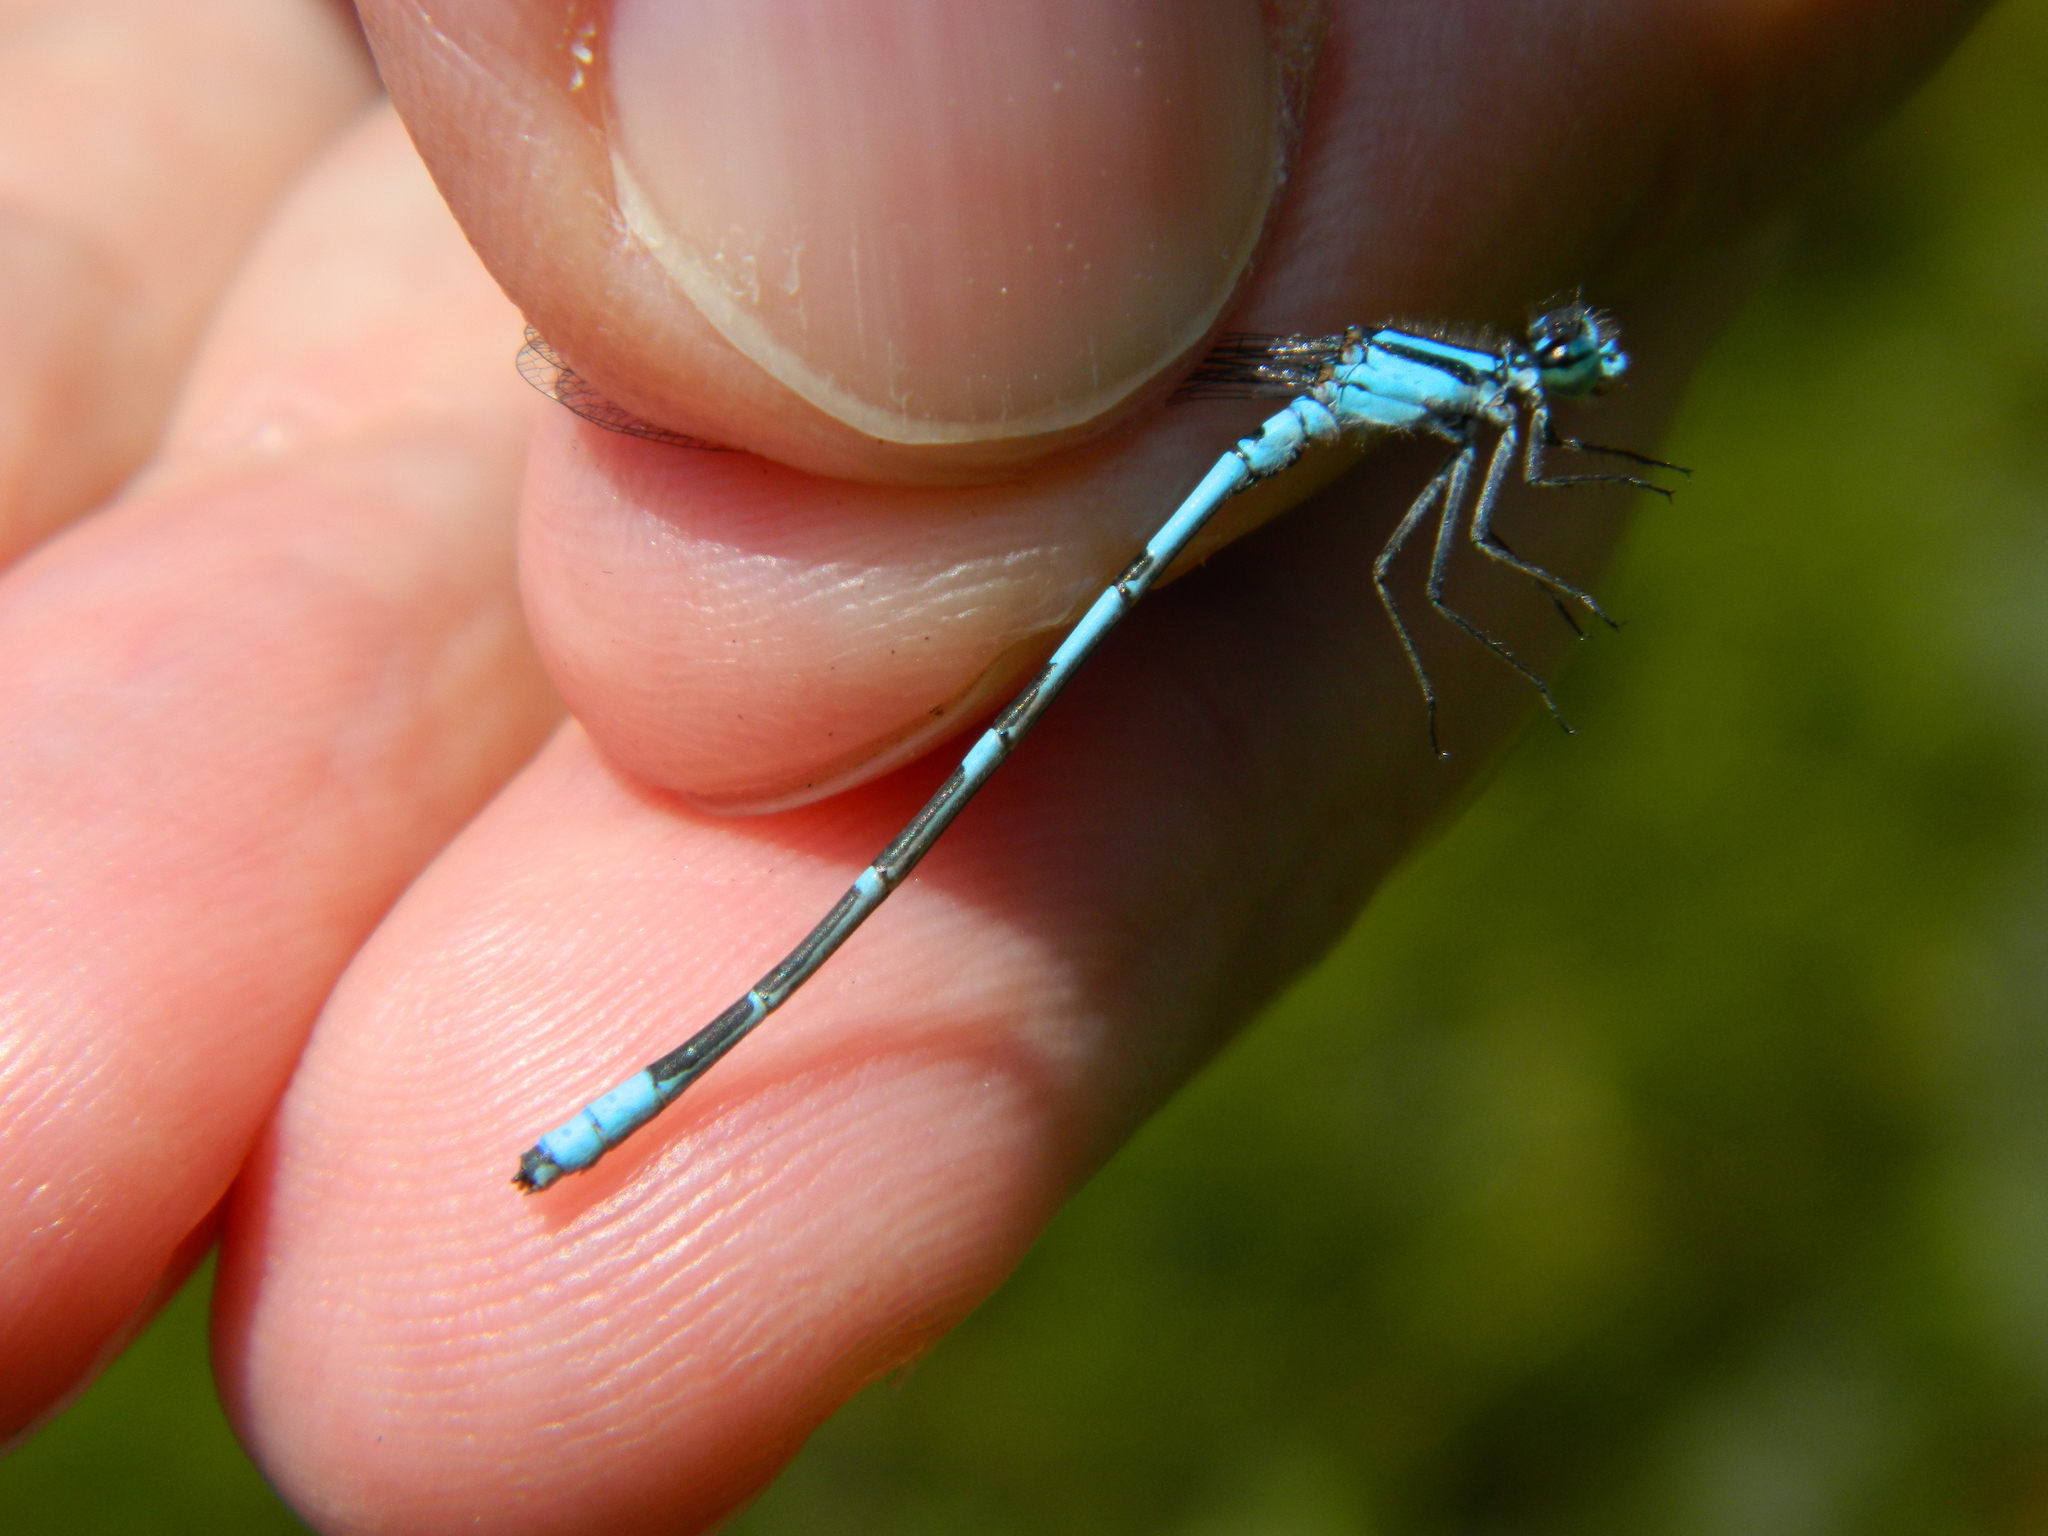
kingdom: Animalia
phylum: Arthropoda
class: Insecta
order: Odonata
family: Coenagrionidae
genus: Enallagma
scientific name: Enallagma ebrium
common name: Marsh bluet
